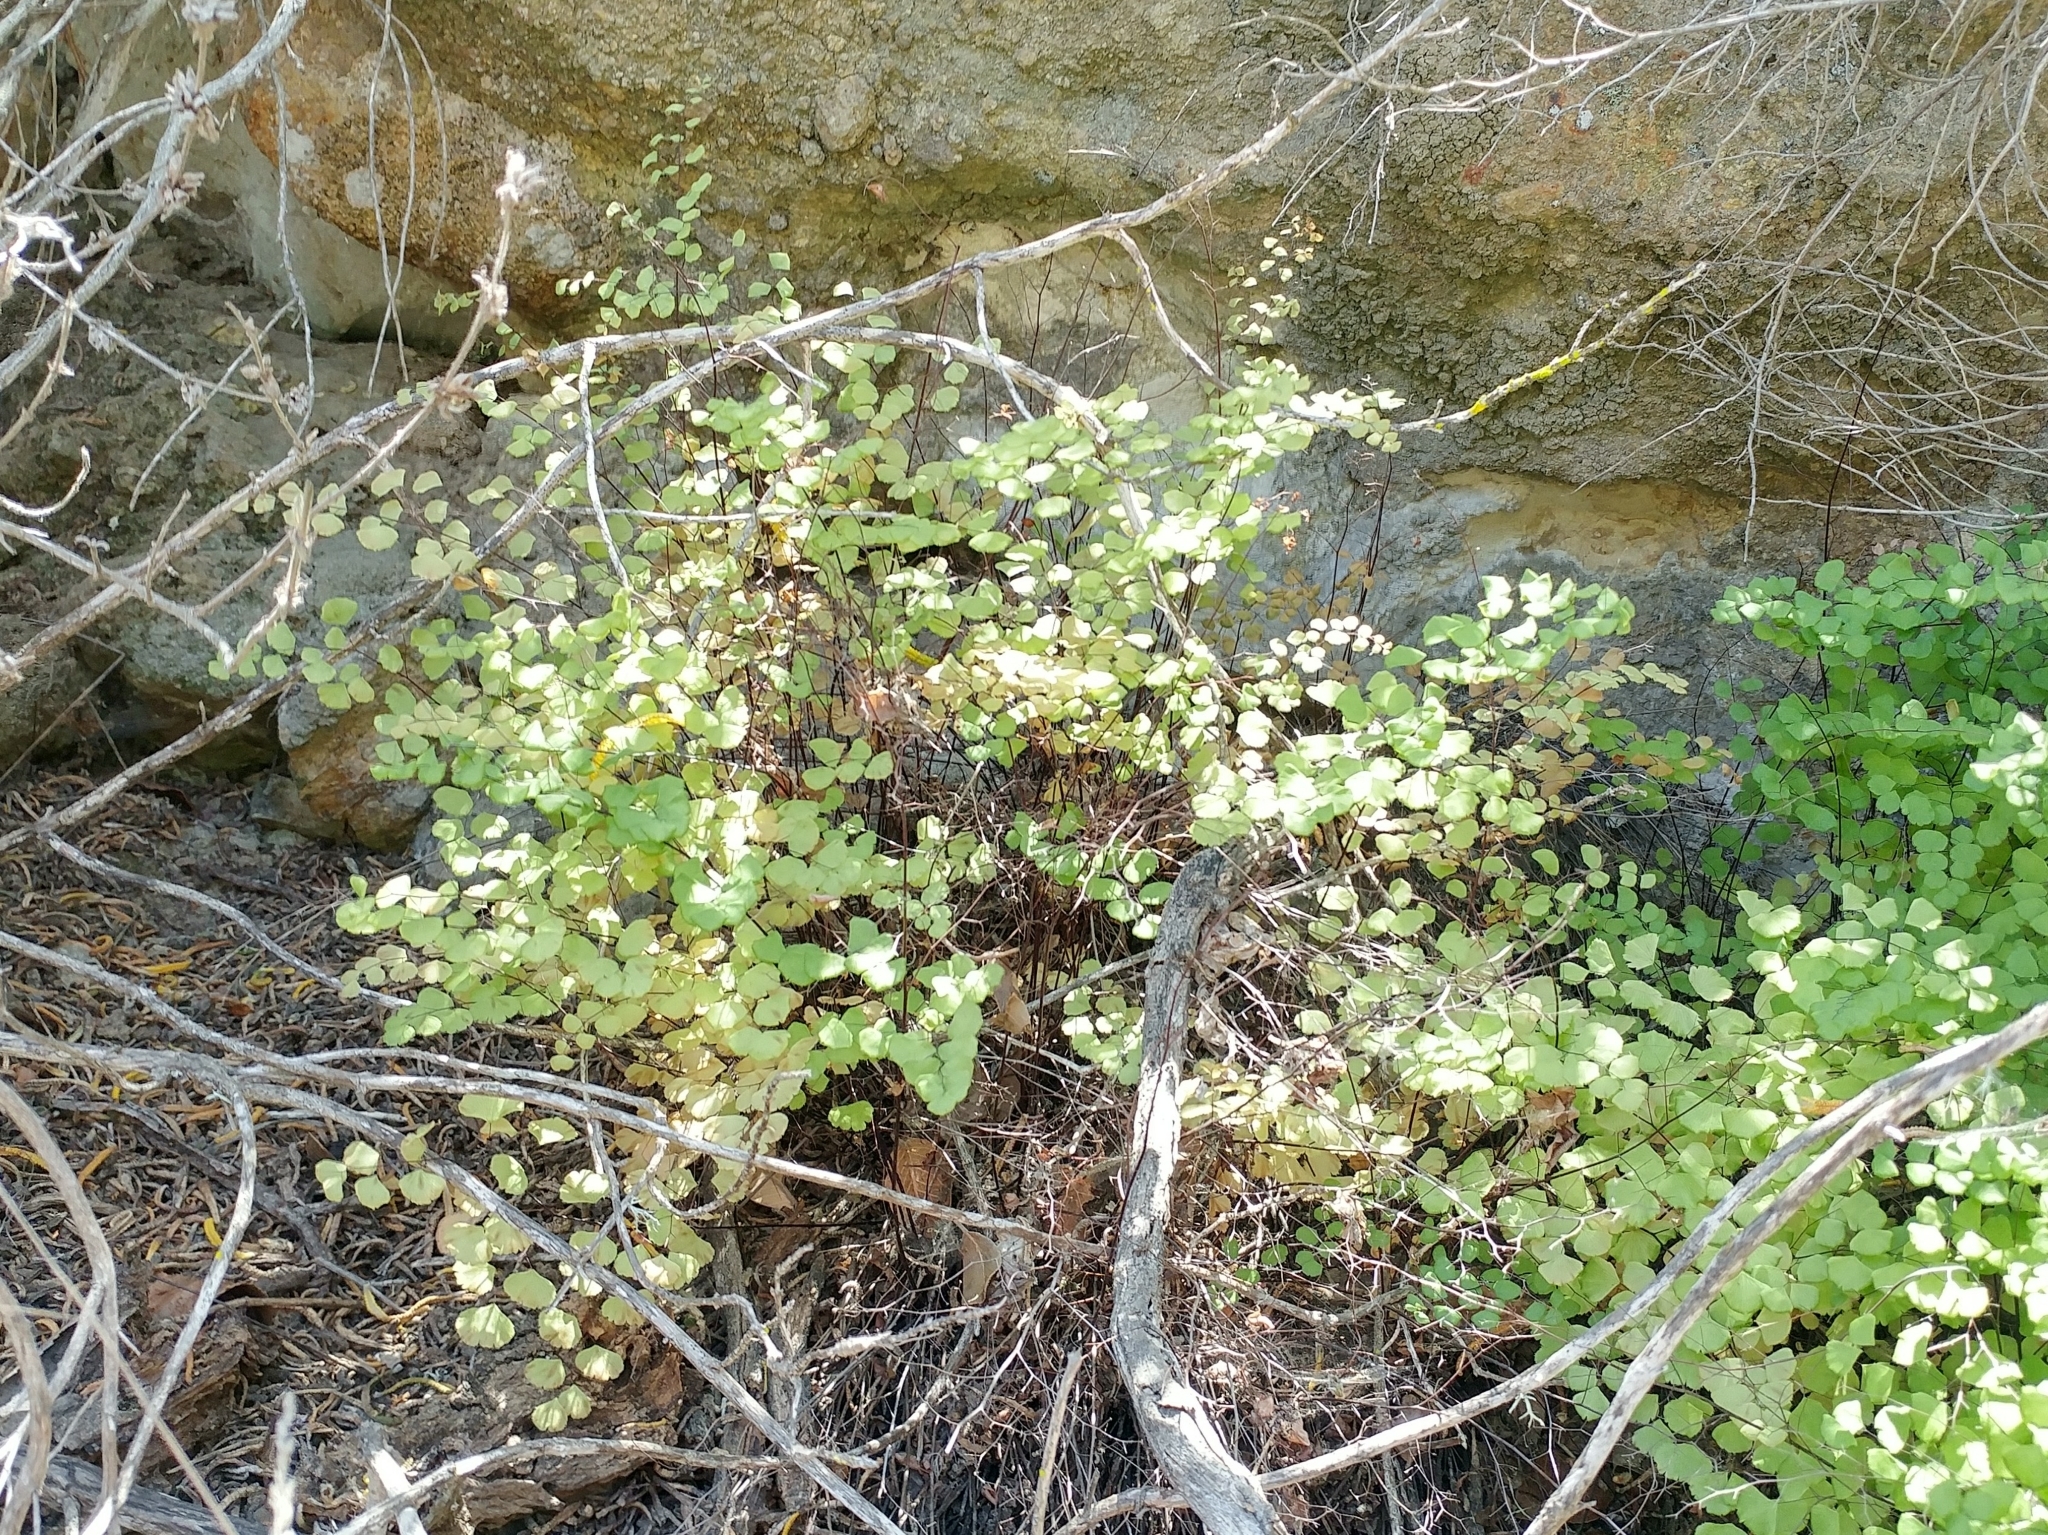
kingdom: Plantae
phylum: Tracheophyta
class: Polypodiopsida
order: Polypodiales
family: Pteridaceae
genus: Adiantum
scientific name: Adiantum jordanii
